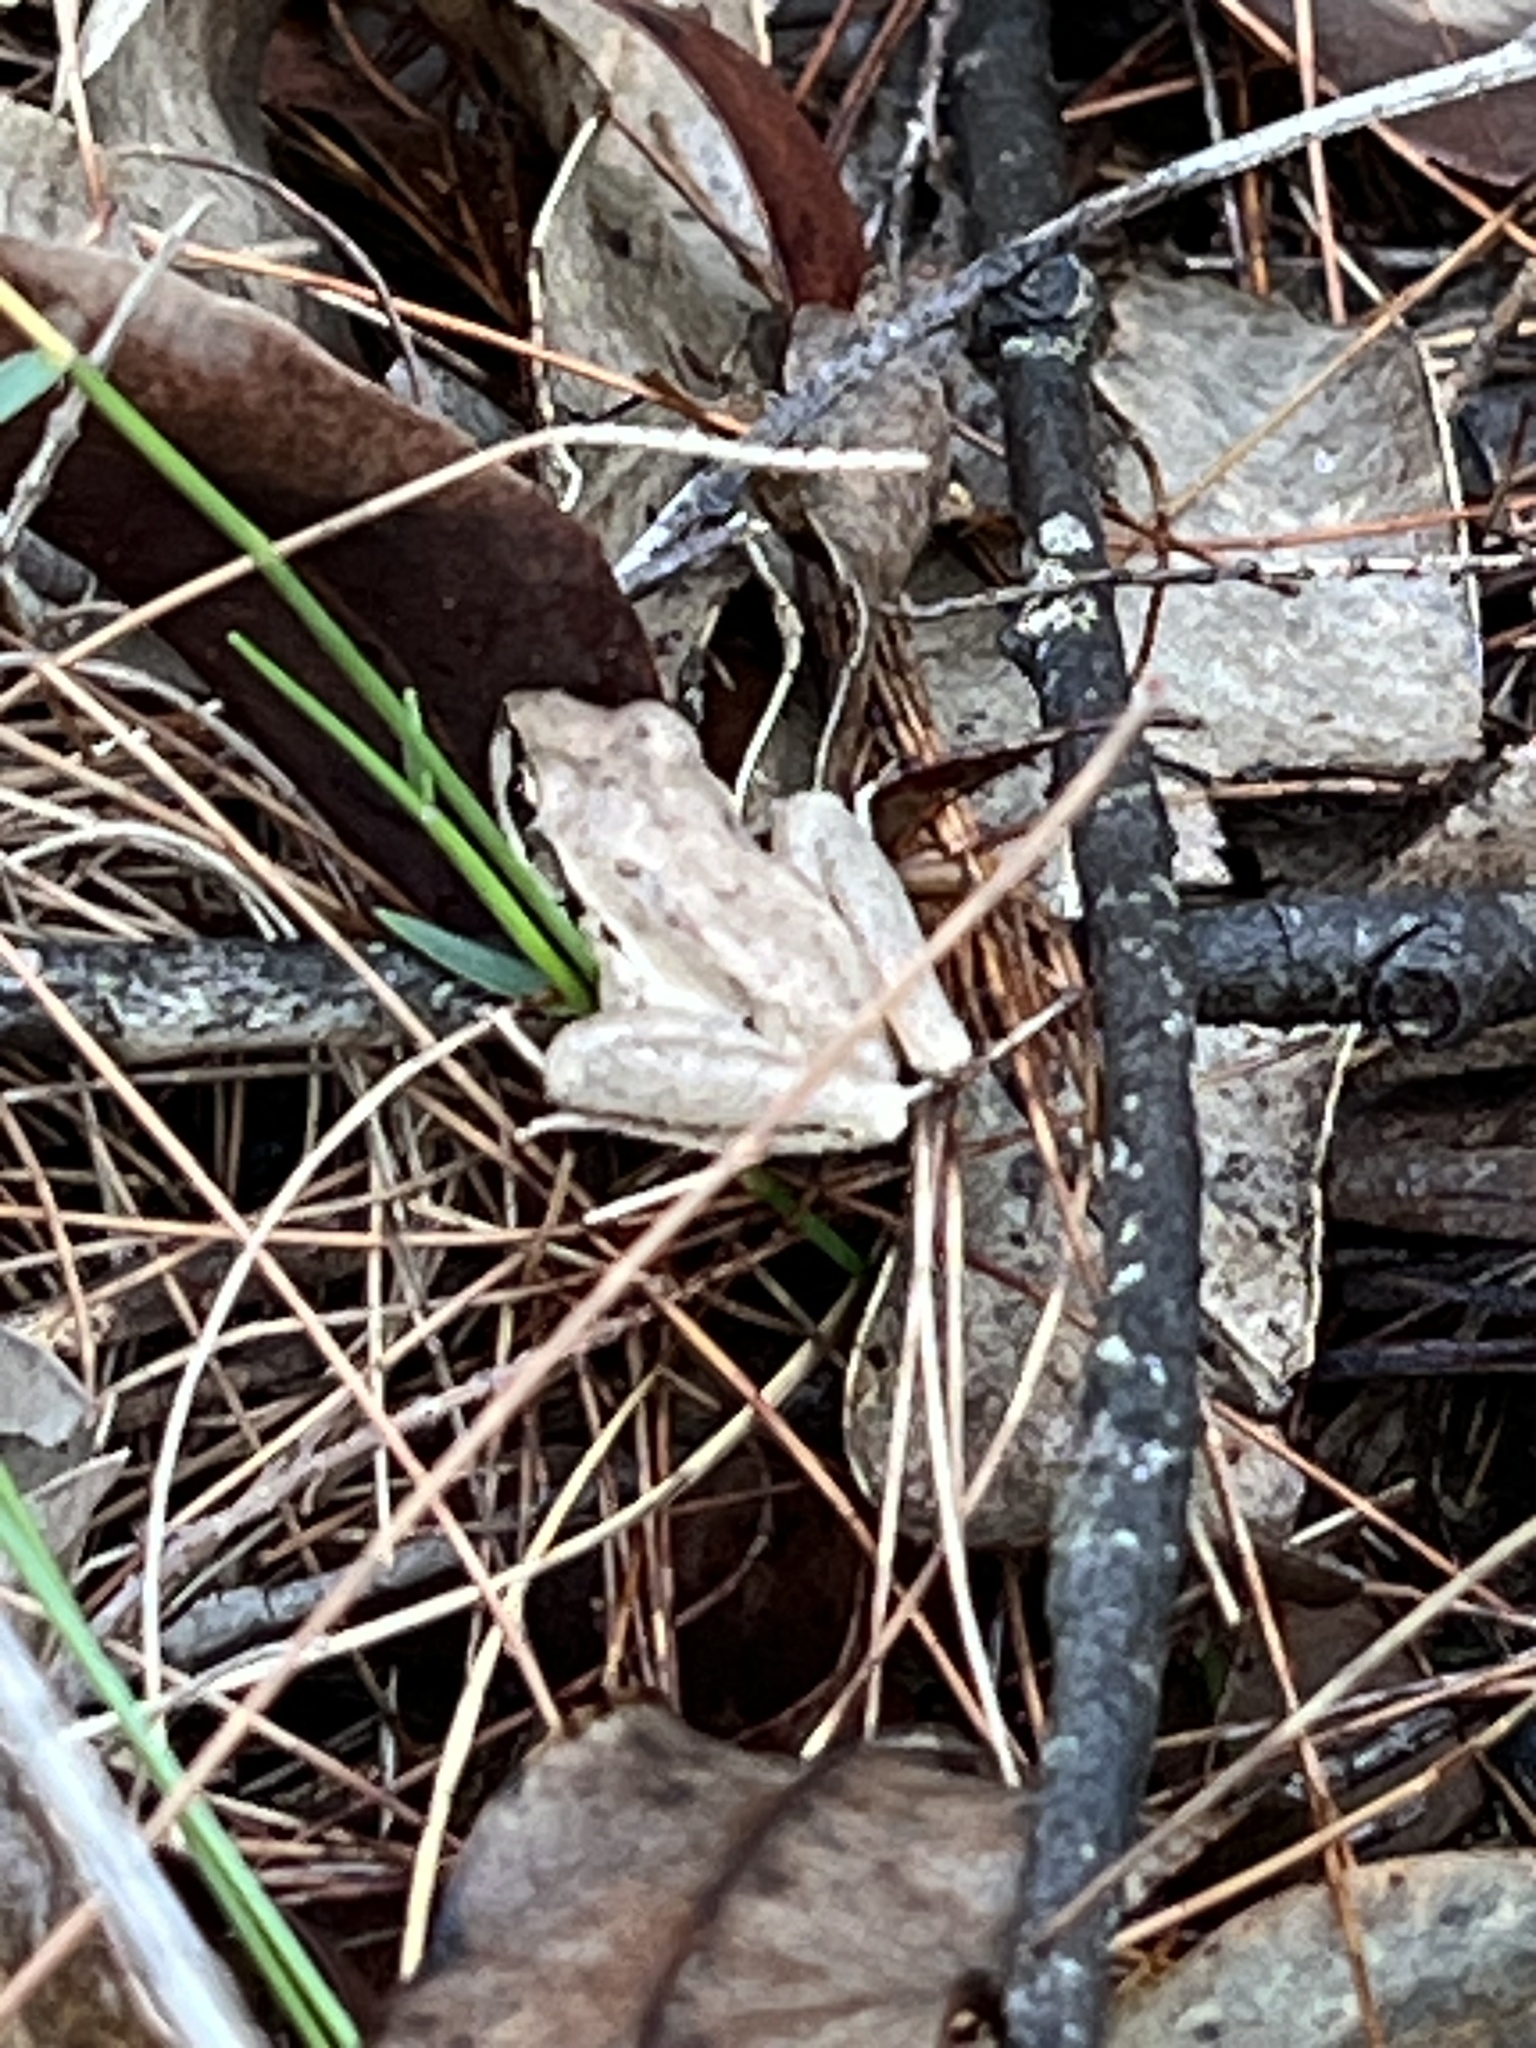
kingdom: Animalia
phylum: Chordata
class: Amphibia
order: Anura
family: Pelodryadidae
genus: Litoria
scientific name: Litoria latopalmata
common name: Broad-palmed rocket frog
